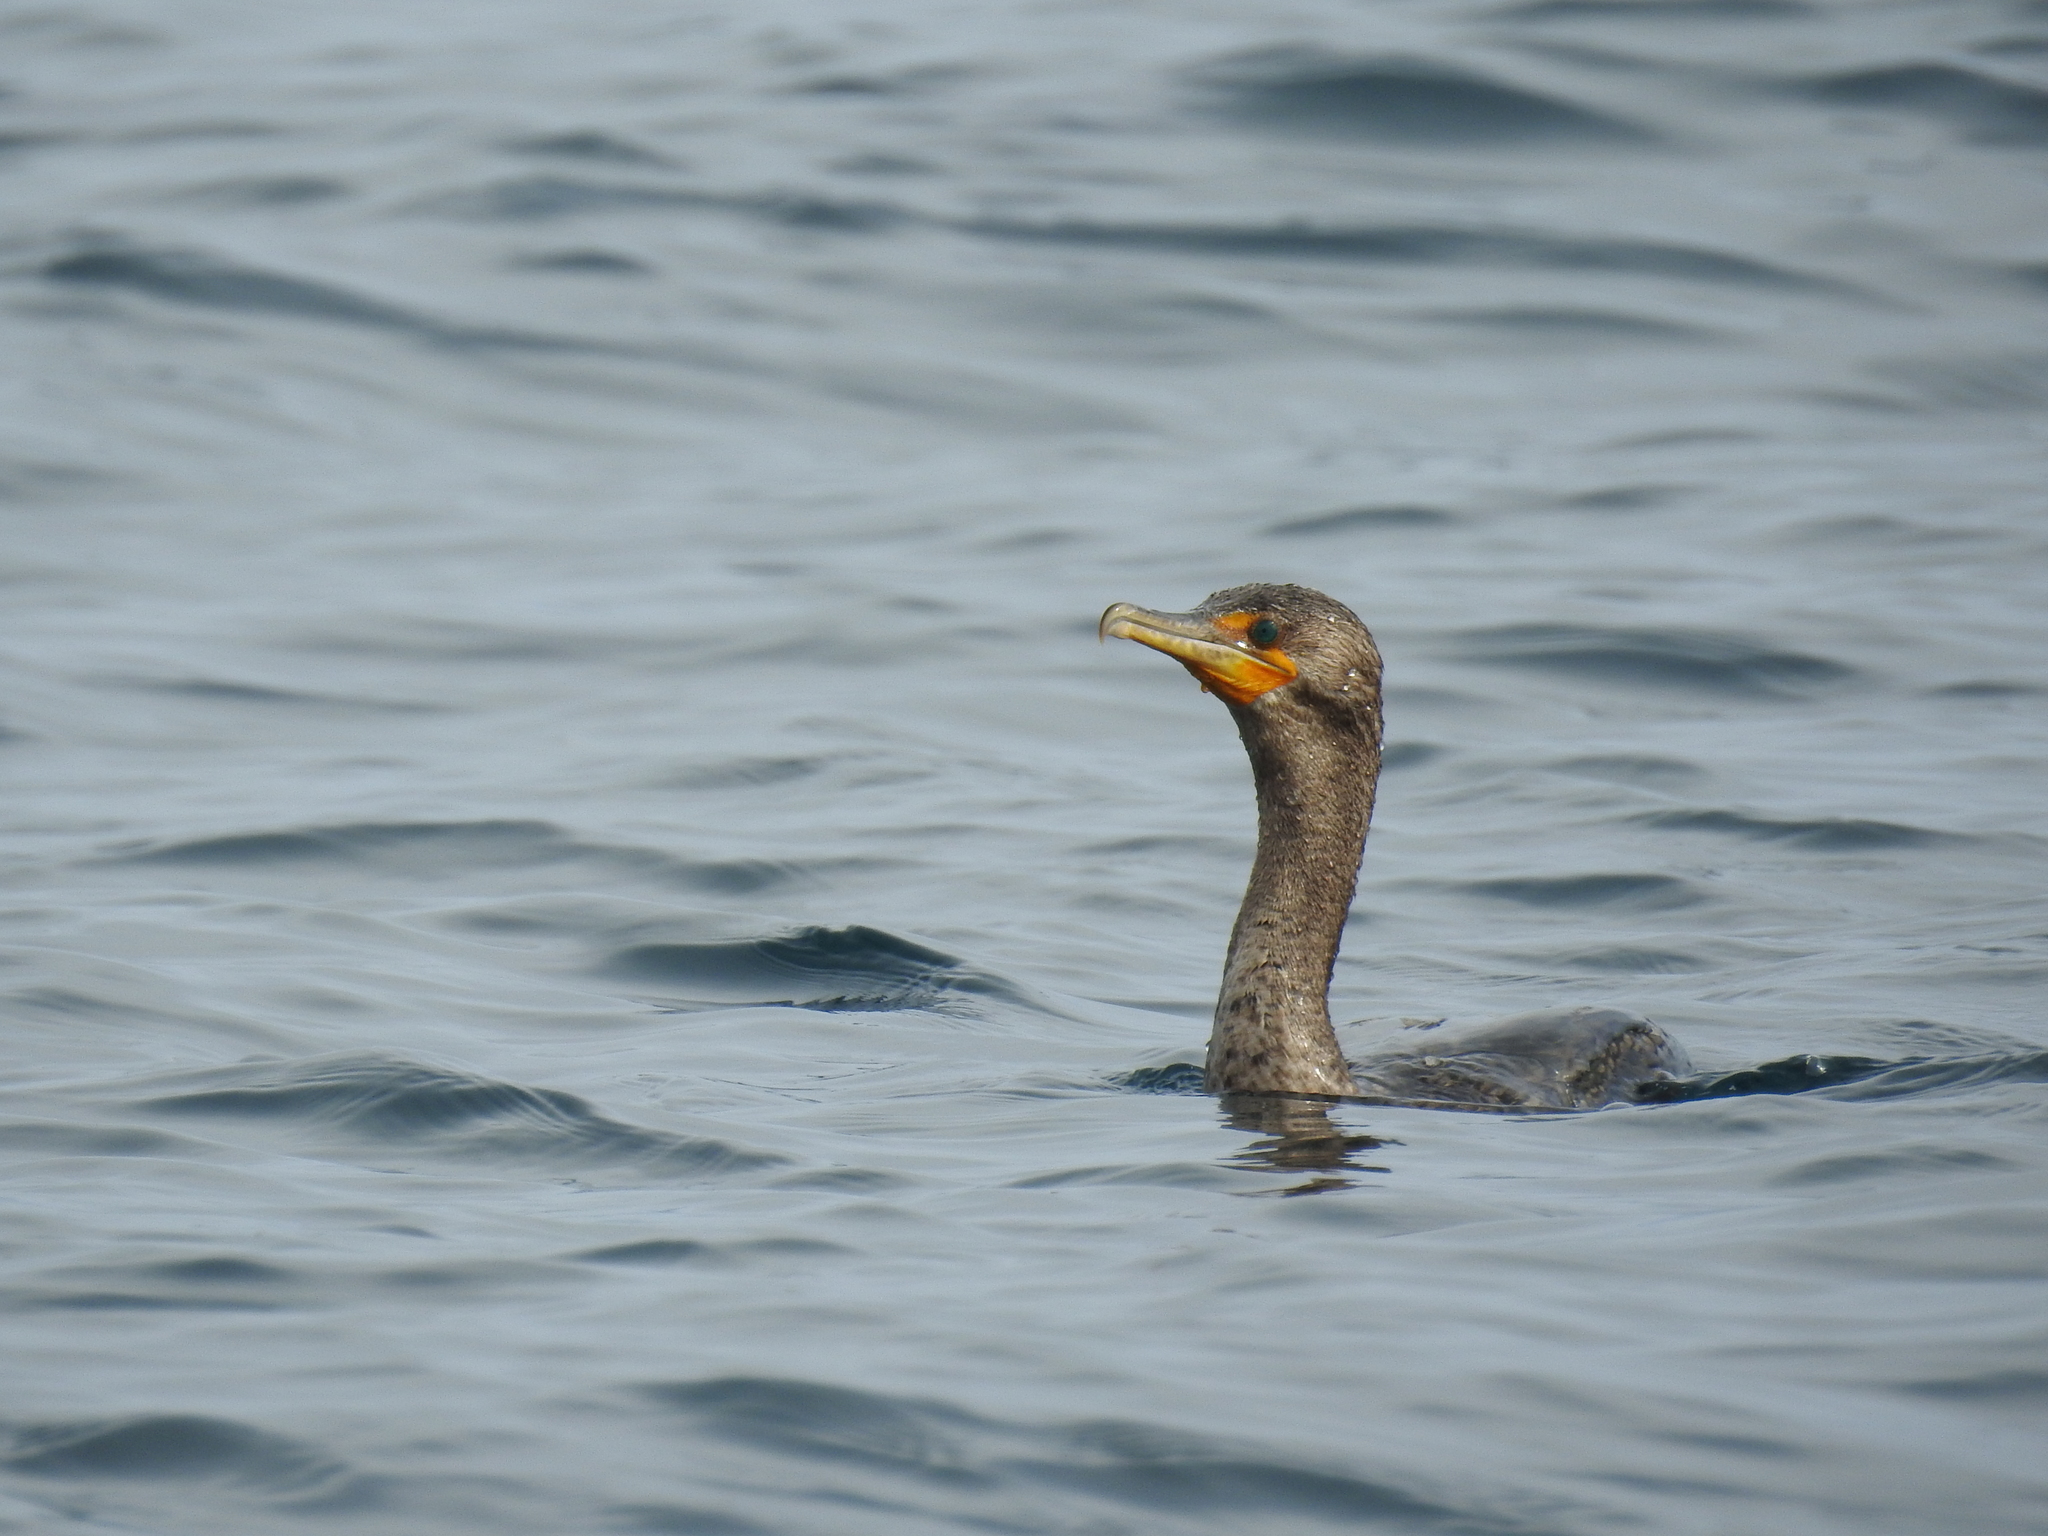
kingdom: Animalia
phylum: Chordata
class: Aves
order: Suliformes
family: Phalacrocoracidae
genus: Phalacrocorax
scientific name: Phalacrocorax auritus
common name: Double-crested cormorant
